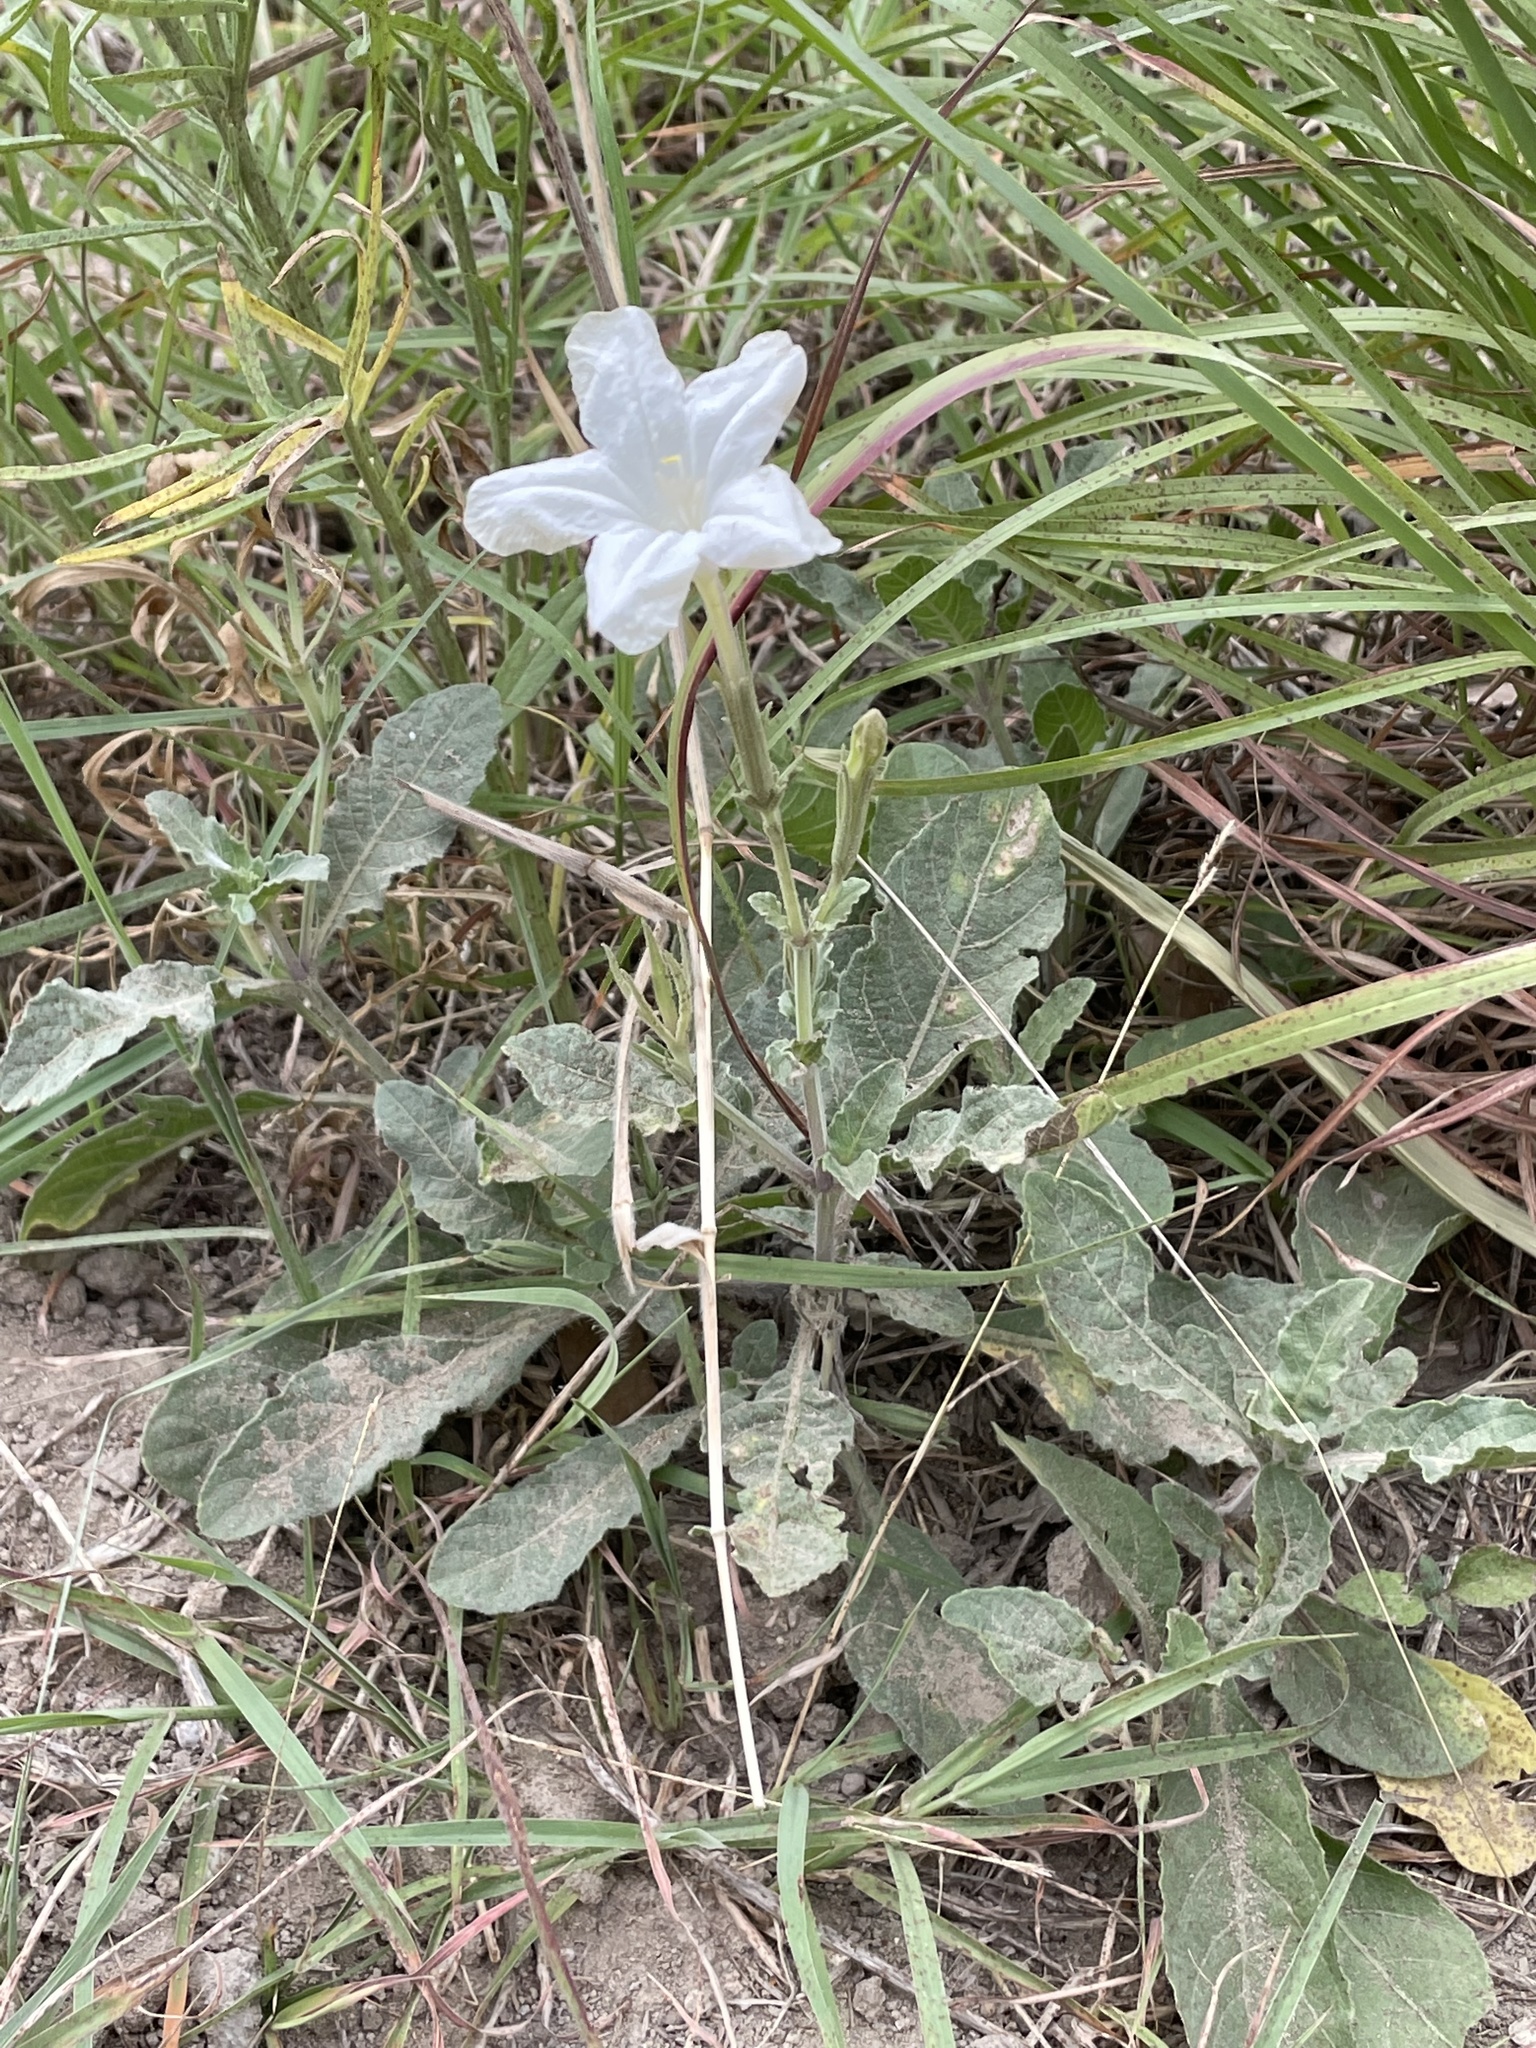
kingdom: Plantae
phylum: Tracheophyta
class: Magnoliopsida
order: Lamiales
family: Acanthaceae
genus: Ruellia
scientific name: Ruellia metziae
